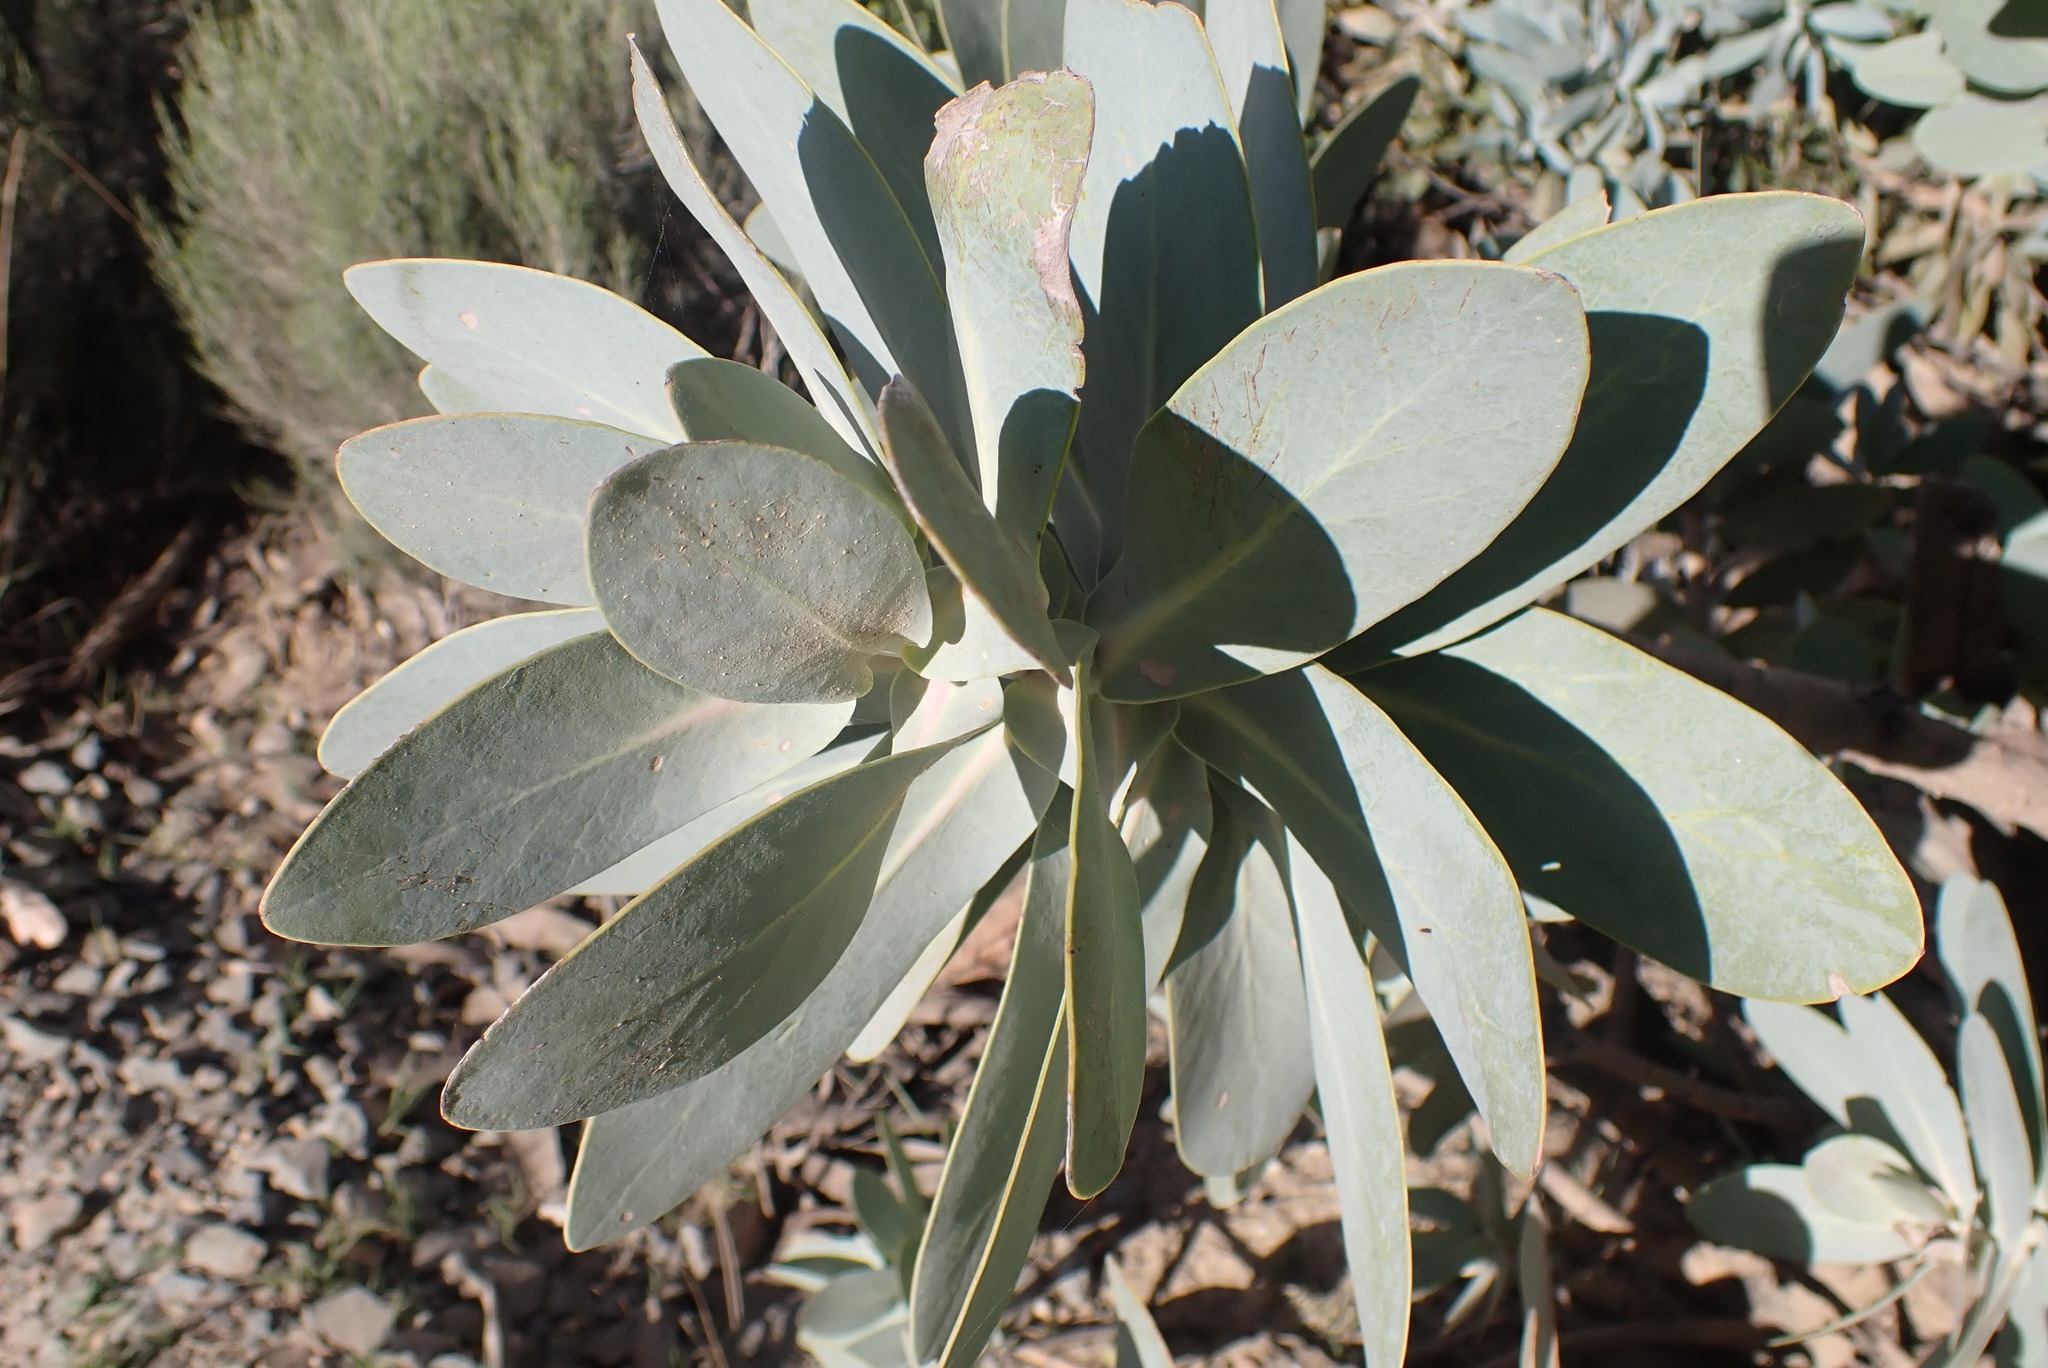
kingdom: Plantae
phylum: Tracheophyta
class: Magnoliopsida
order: Proteales
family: Proteaceae
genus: Protea
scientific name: Protea nitida
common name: Tree protea
